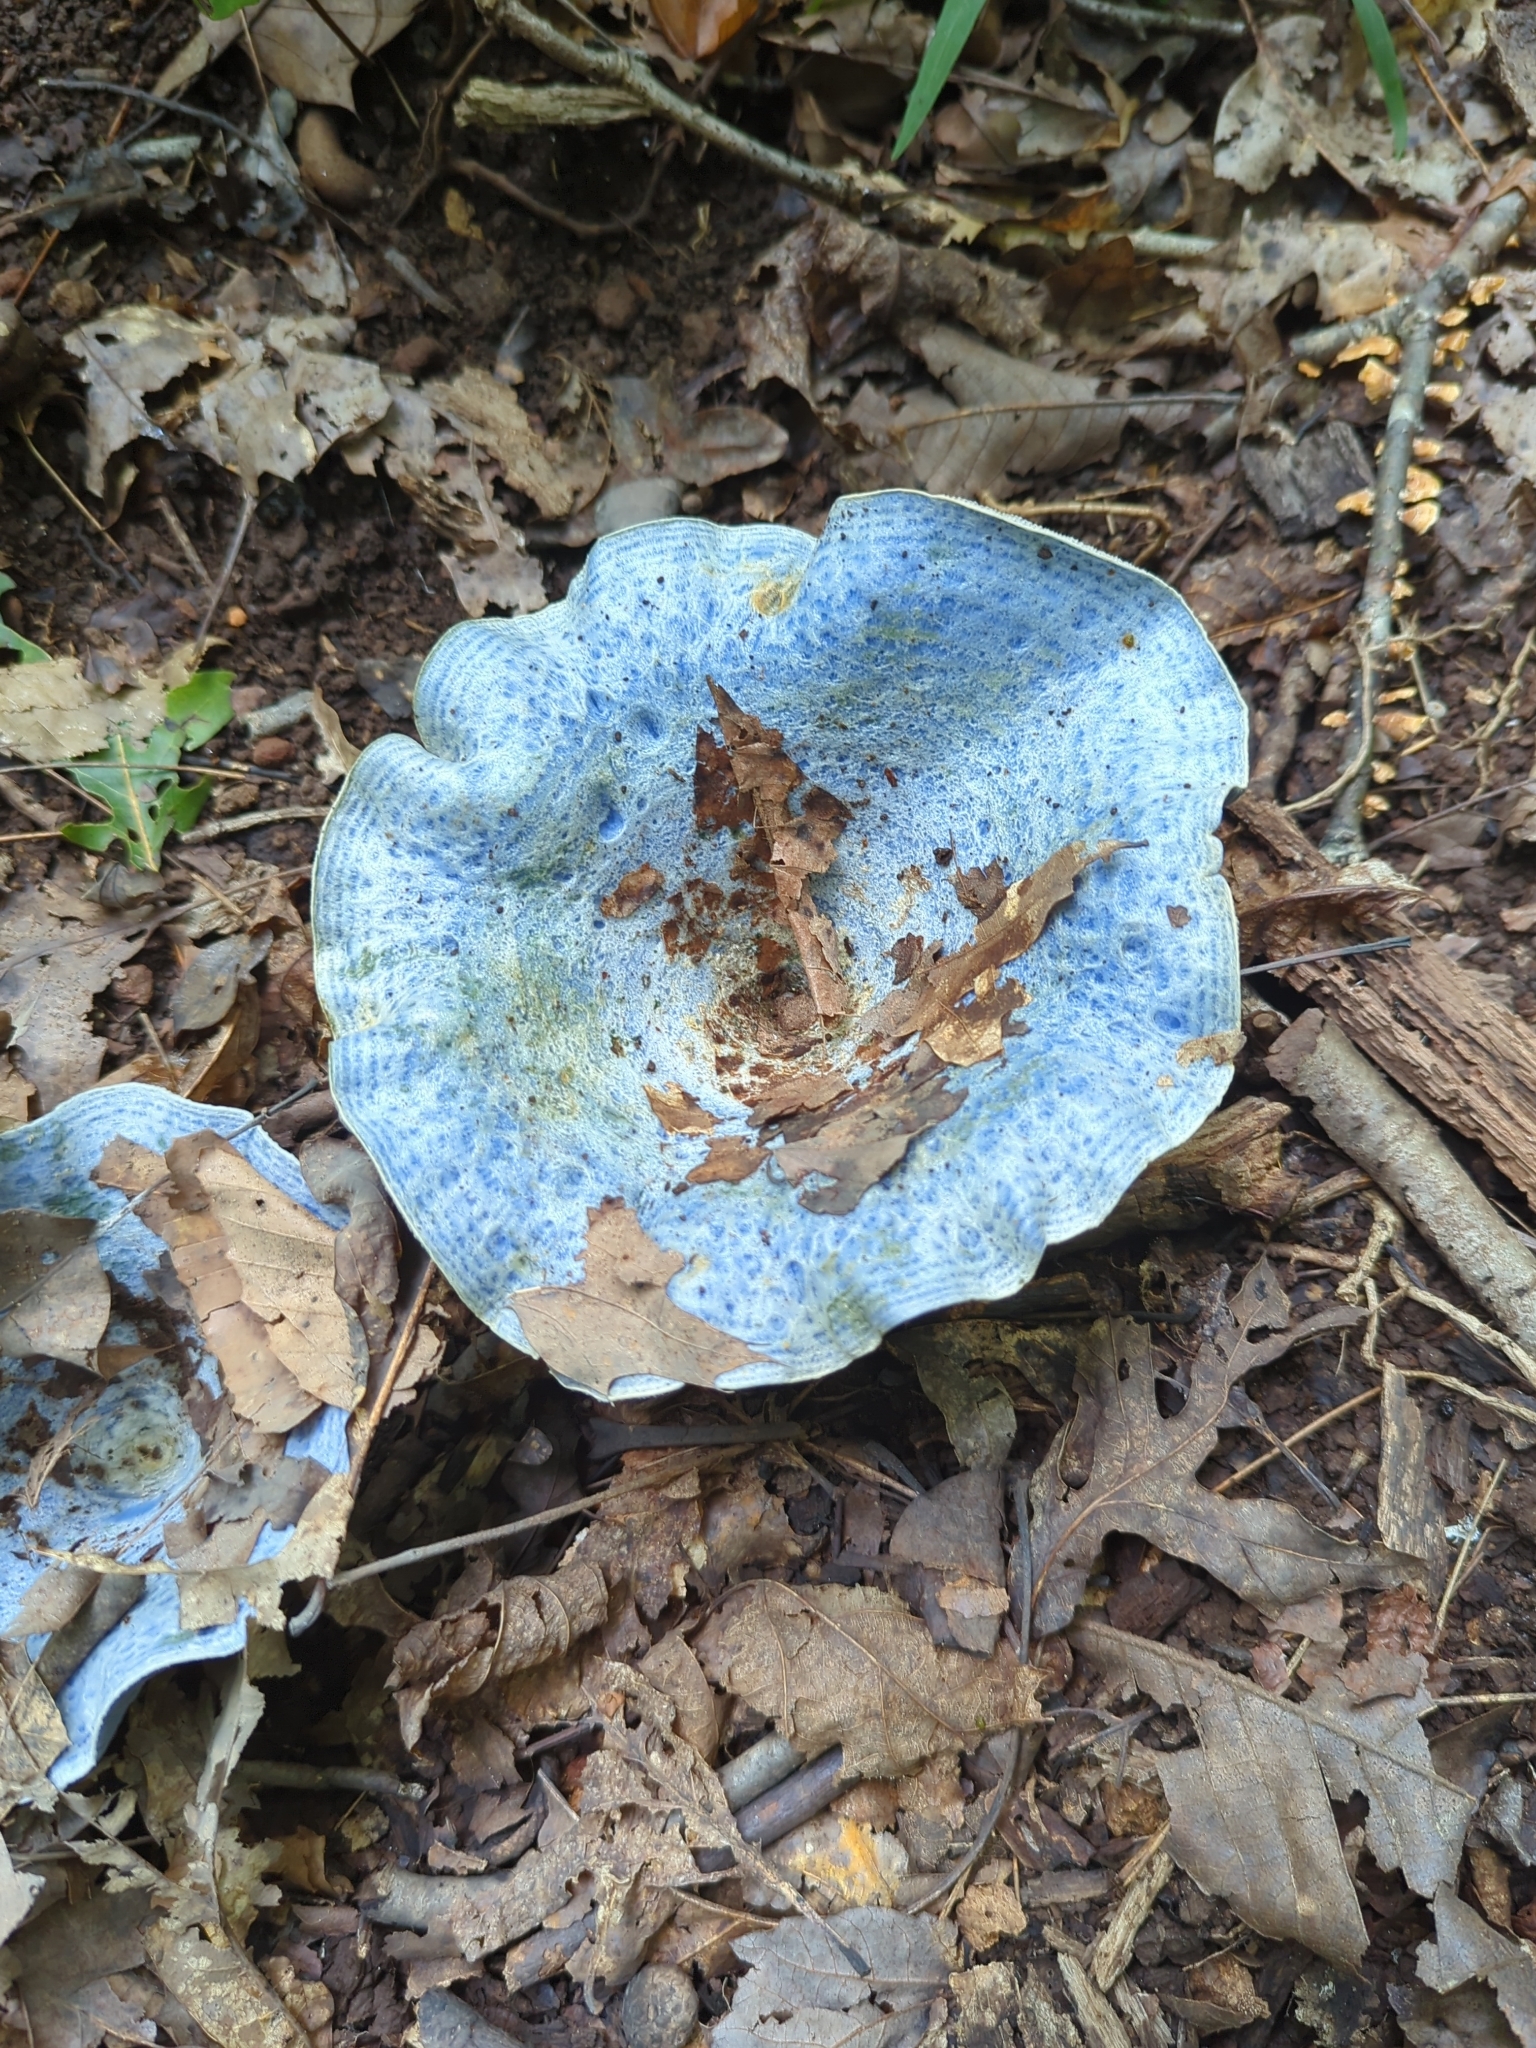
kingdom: Fungi
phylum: Basidiomycota
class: Agaricomycetes
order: Russulales
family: Russulaceae
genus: Lactarius
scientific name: Lactarius indigo
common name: Indigo milk cap
